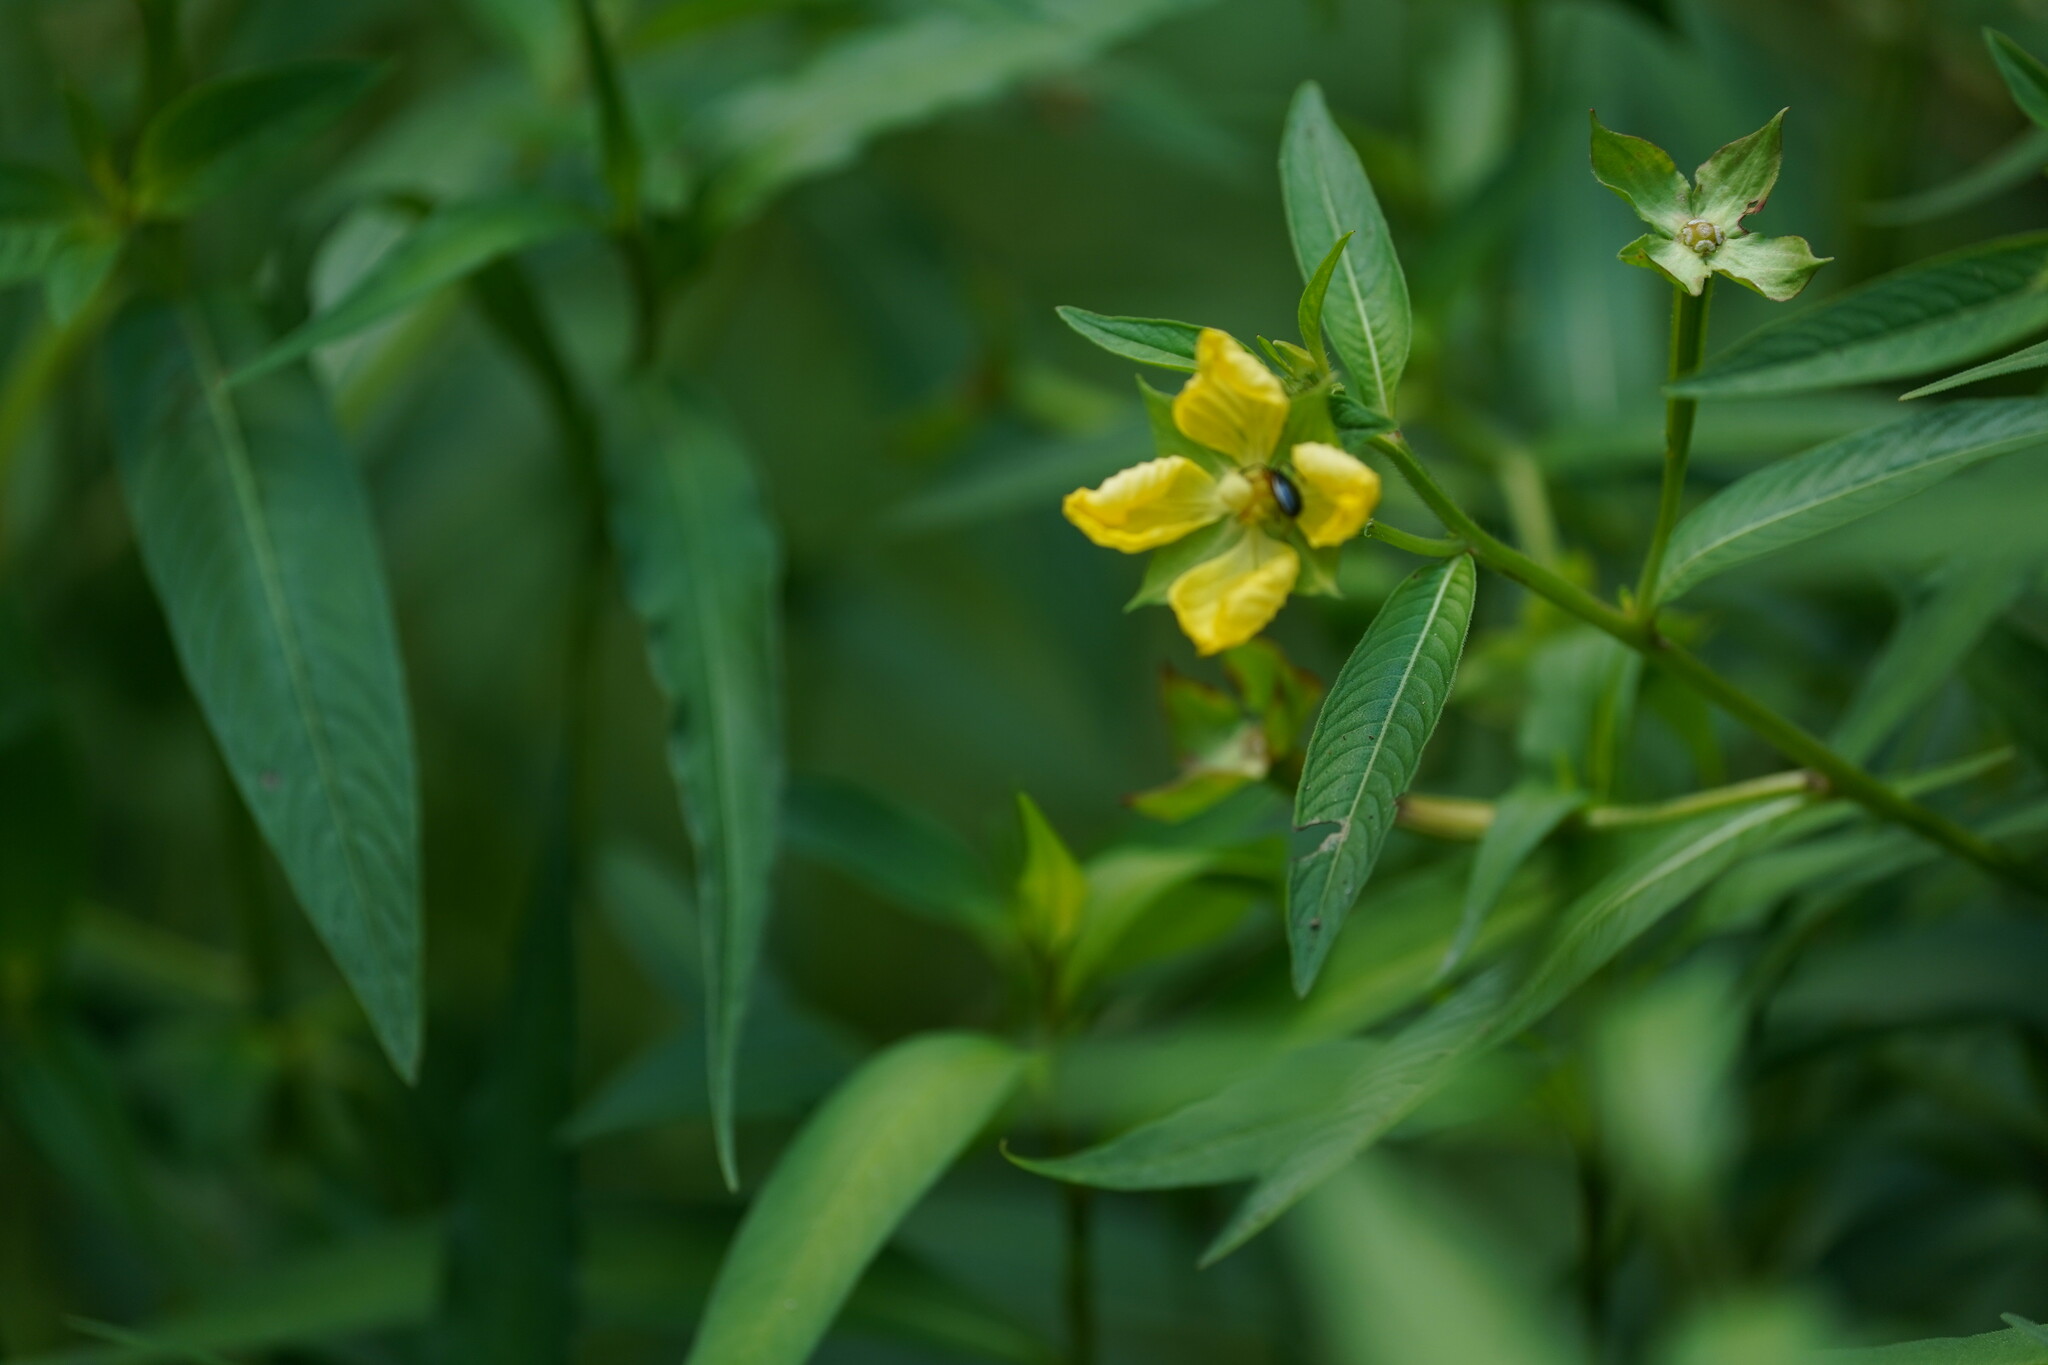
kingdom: Plantae
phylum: Tracheophyta
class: Magnoliopsida
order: Myrtales
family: Onagraceae
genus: Ludwigia
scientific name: Ludwigia octovalvis
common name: Water-primrose
